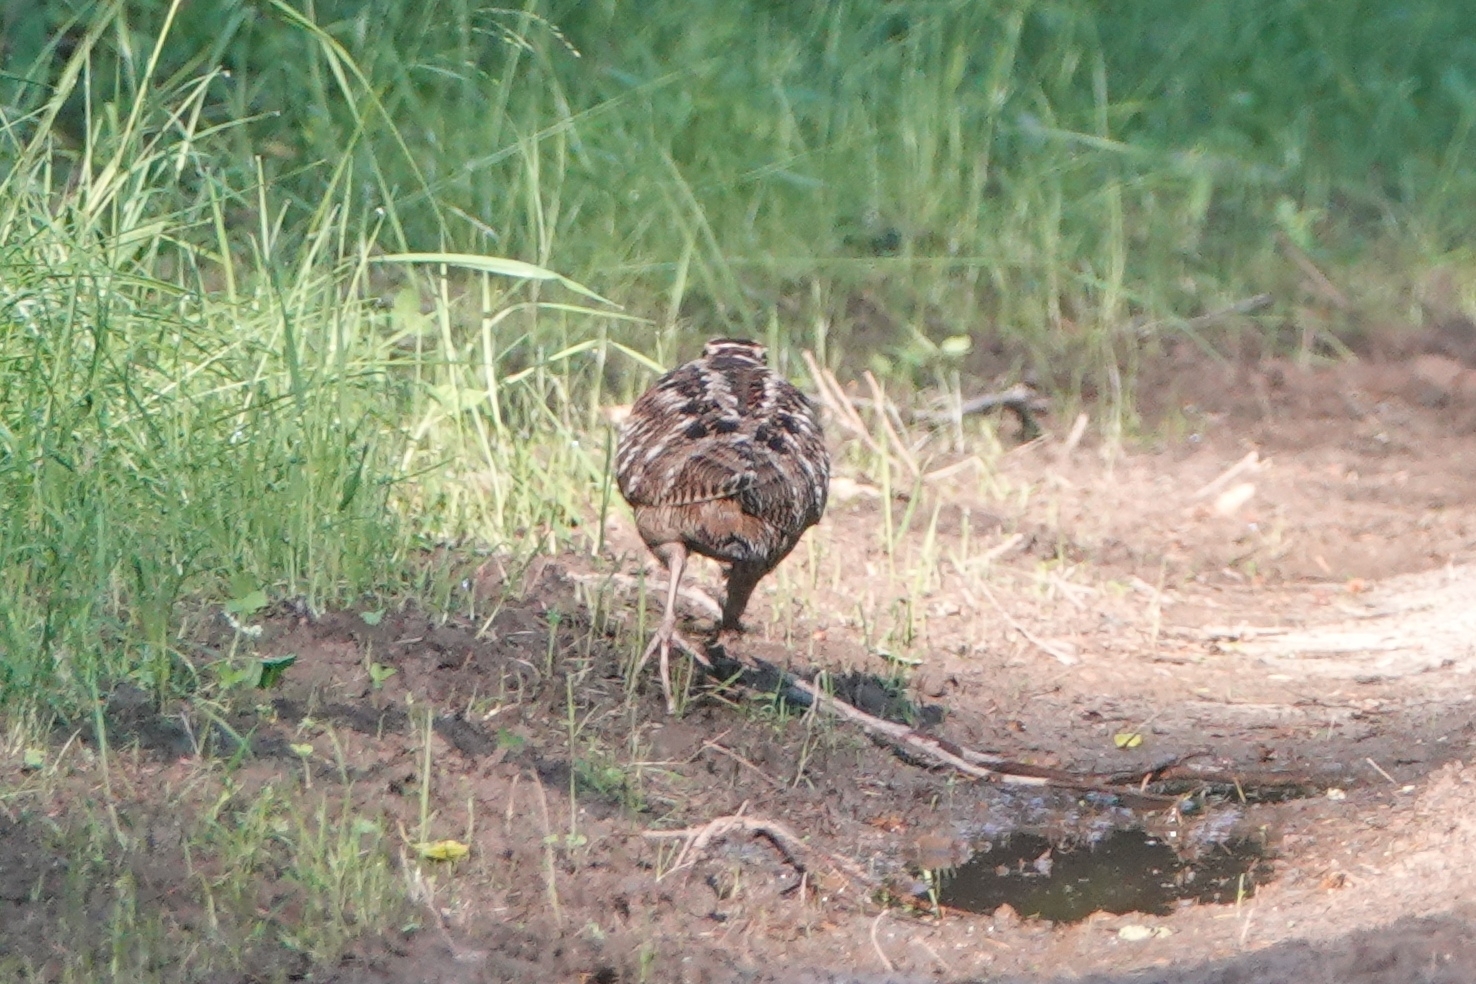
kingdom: Animalia
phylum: Chordata
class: Aves
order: Charadriiformes
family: Scolopacidae
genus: Scolopax
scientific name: Scolopax rusticola
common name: Eurasian woodcock
